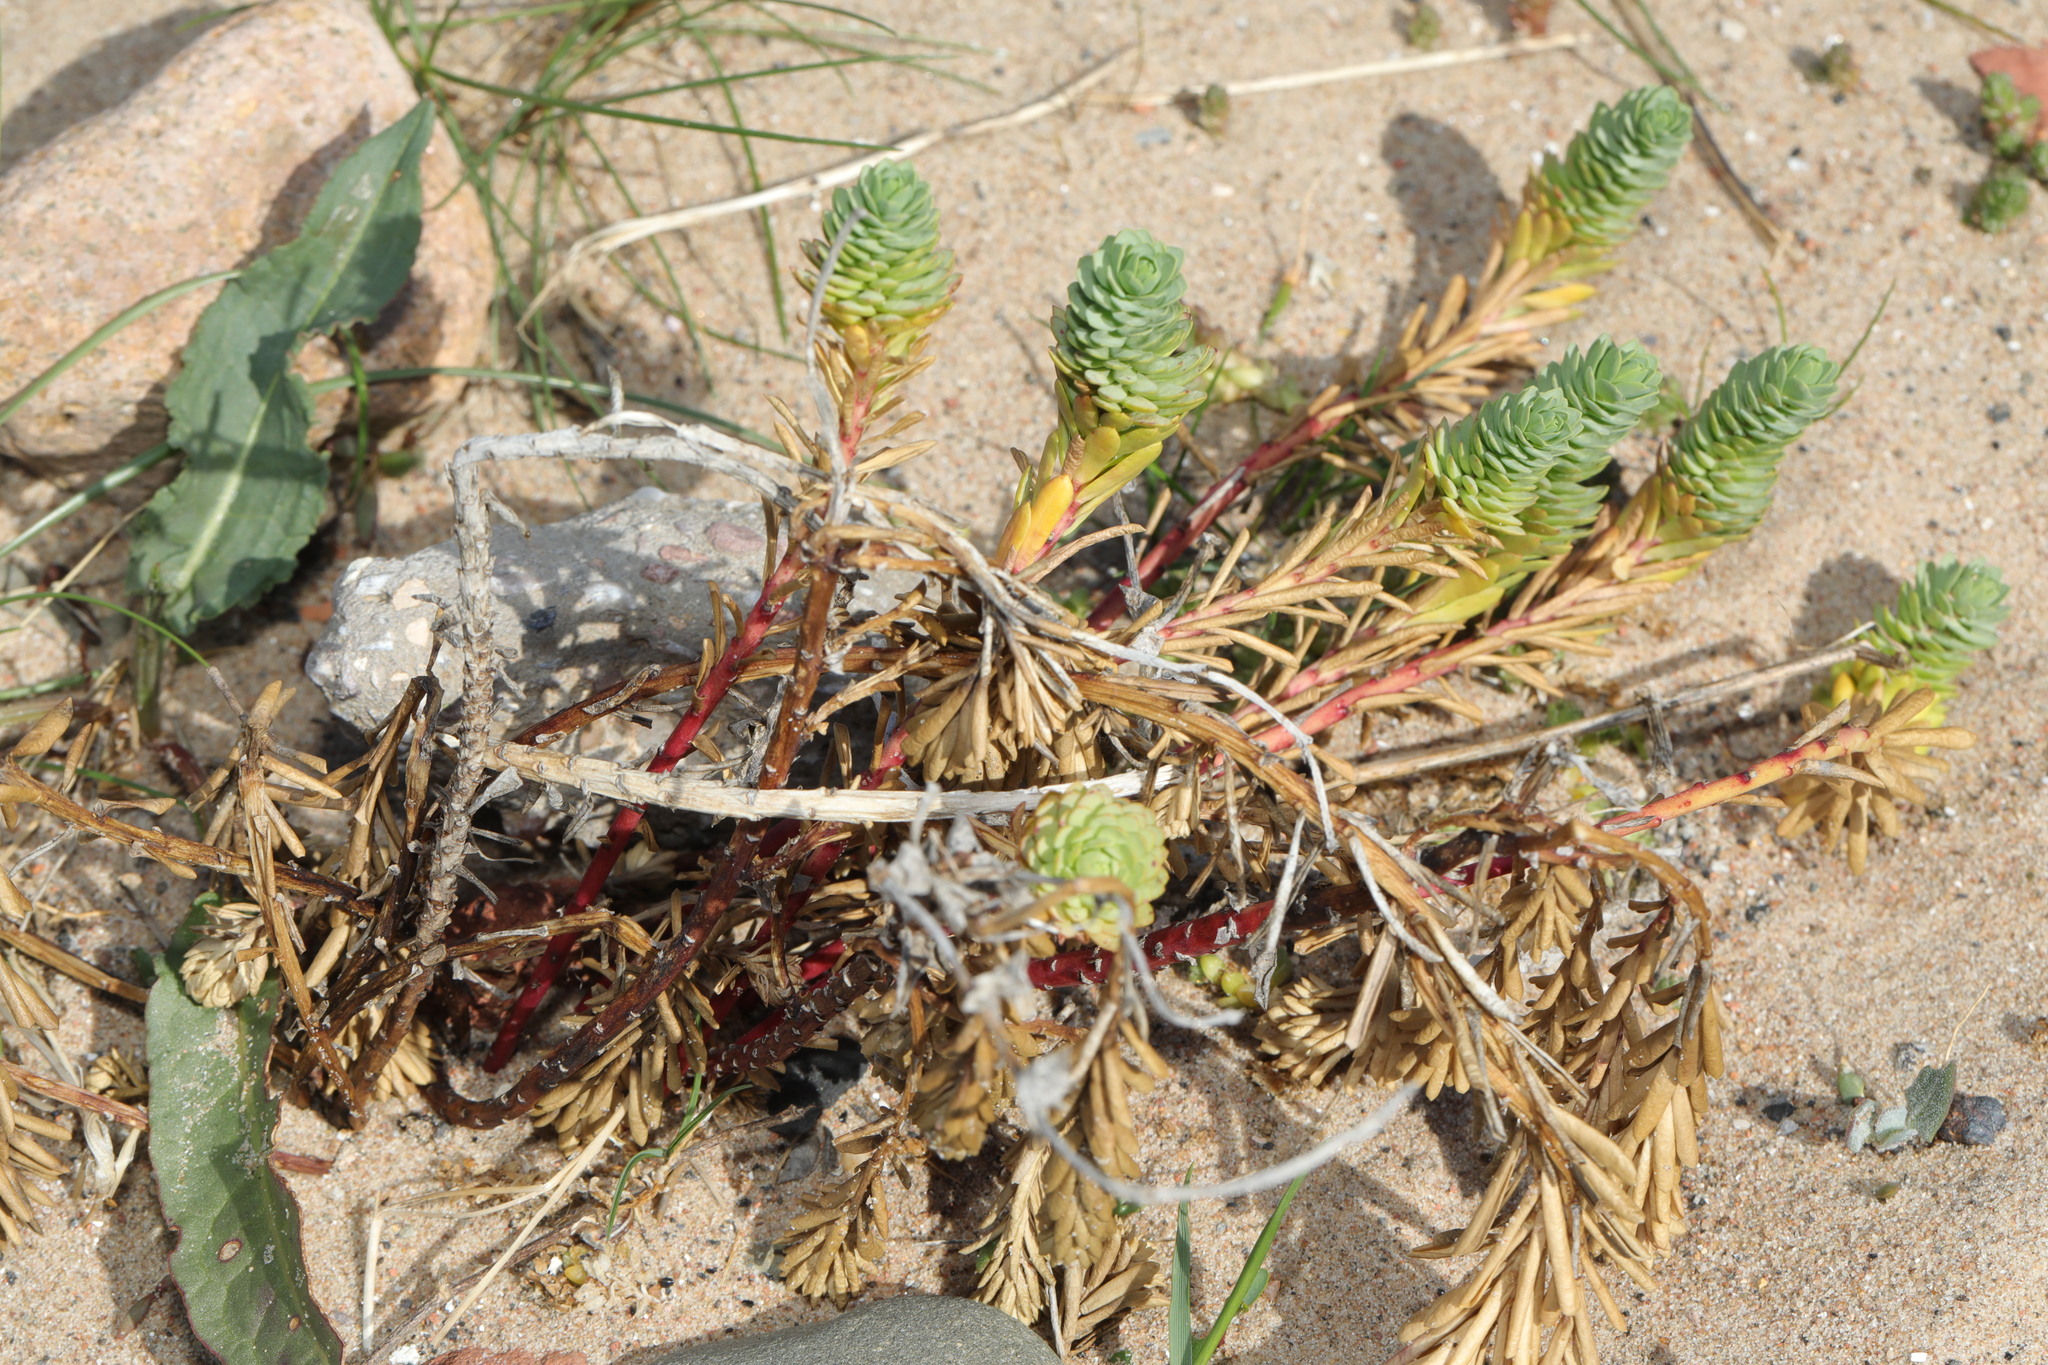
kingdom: Plantae
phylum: Tracheophyta
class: Magnoliopsida
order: Malpighiales
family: Euphorbiaceae
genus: Euphorbia
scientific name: Euphorbia paralias
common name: Sea spurge
